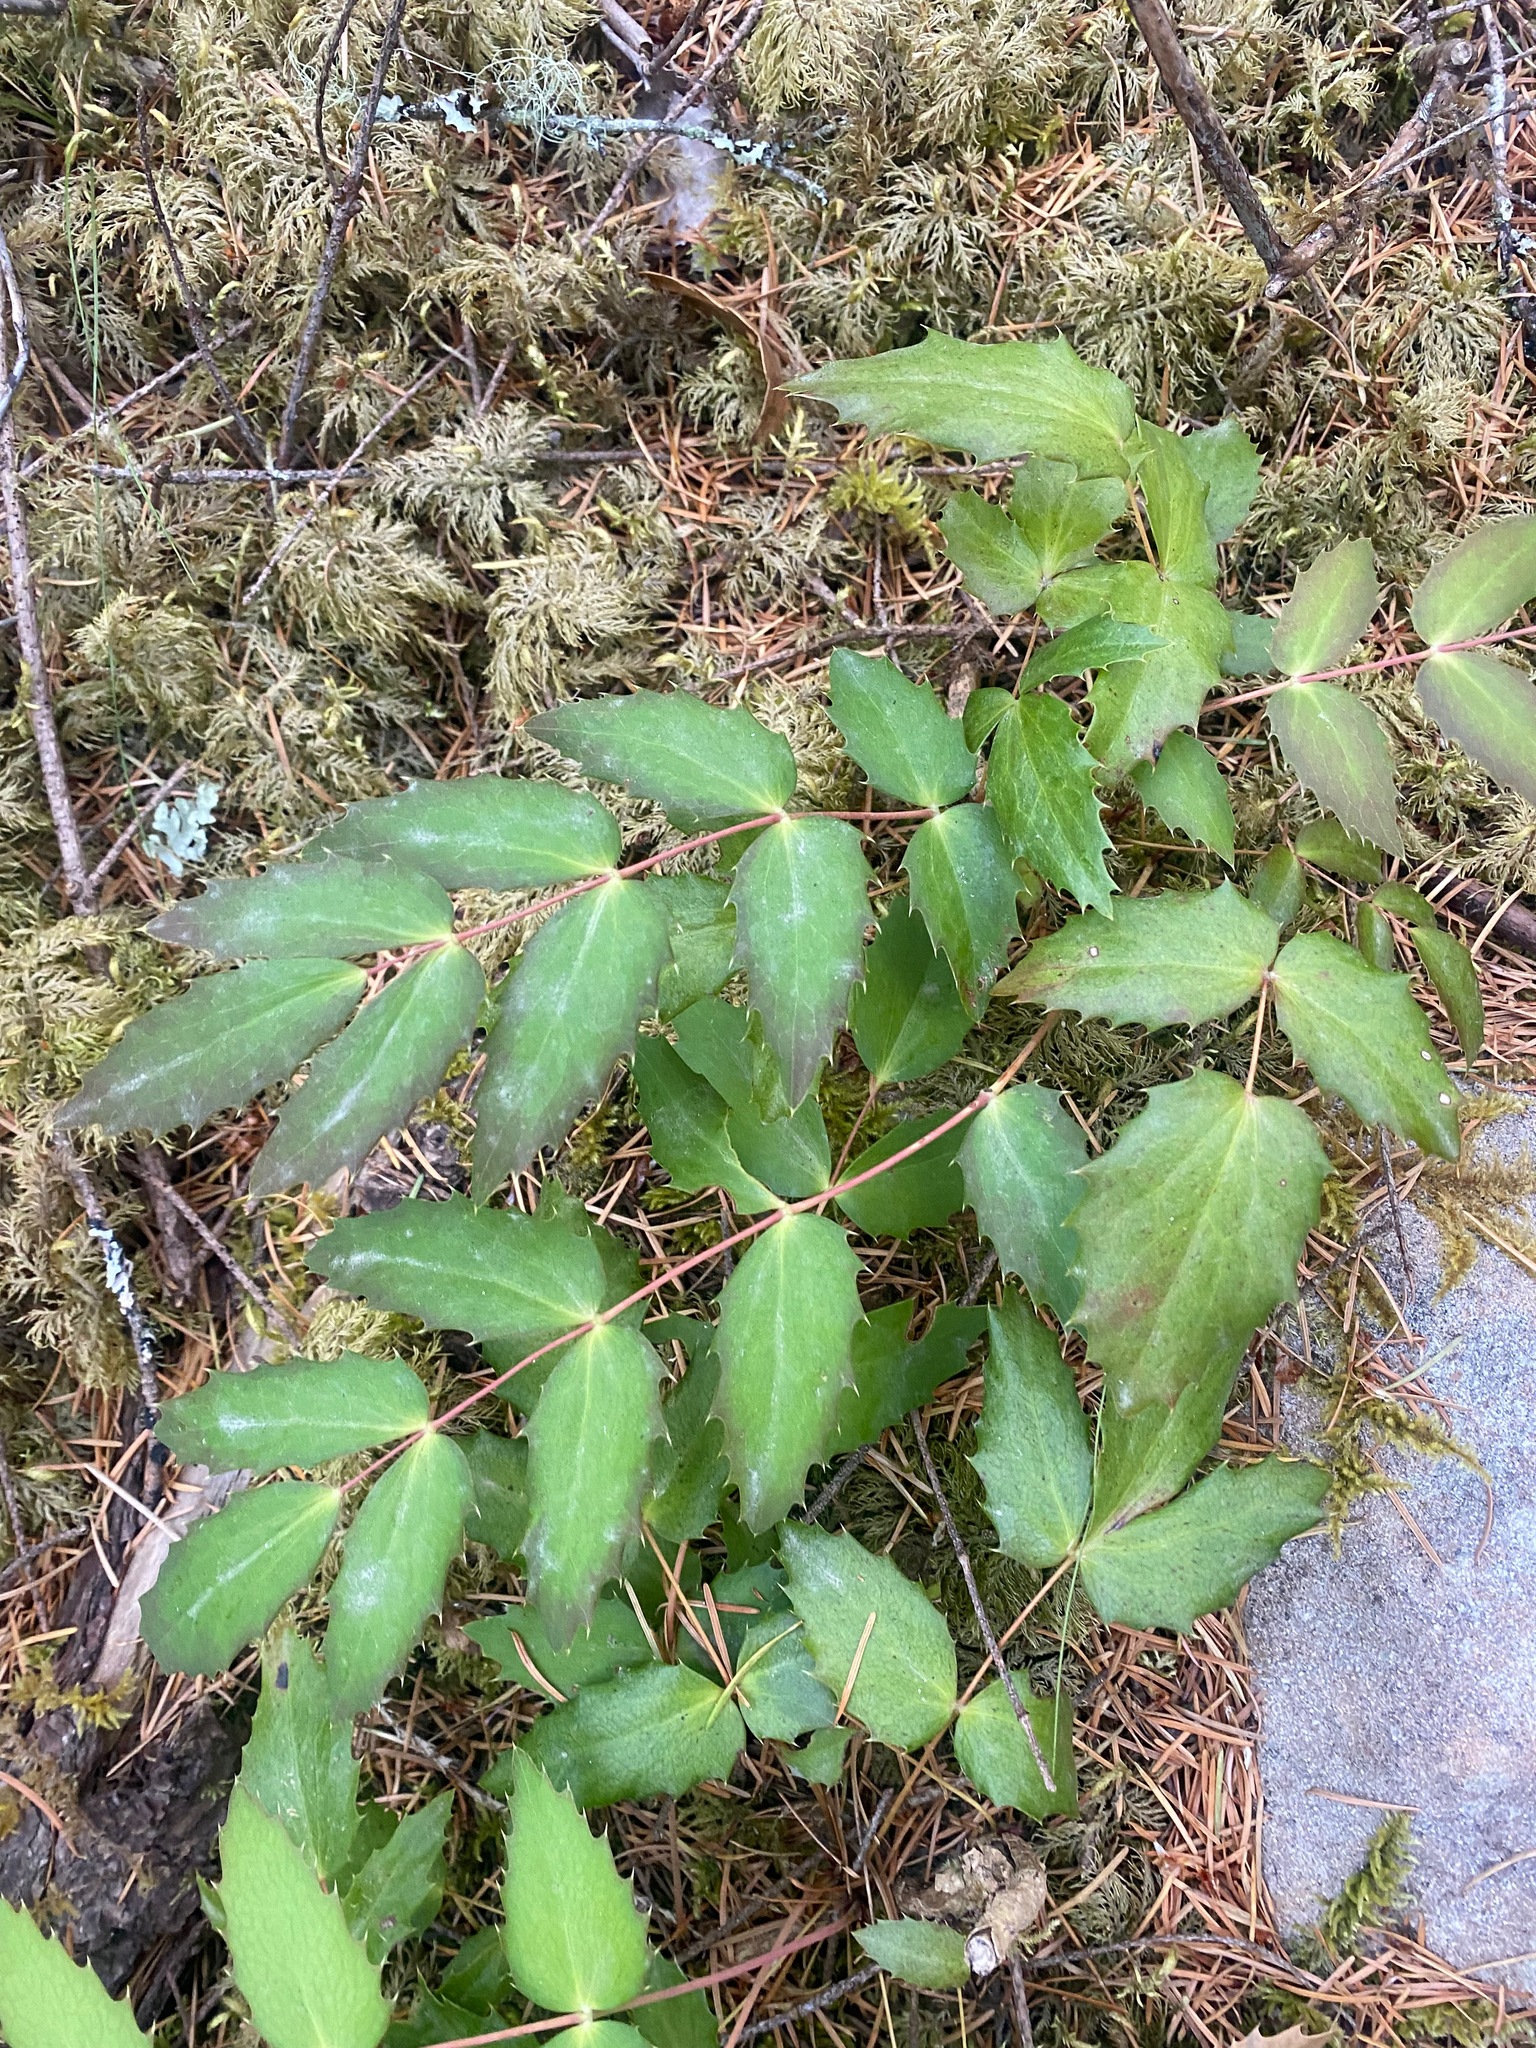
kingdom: Plantae
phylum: Tracheophyta
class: Magnoliopsida
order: Ranunculales
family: Berberidaceae
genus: Mahonia
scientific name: Mahonia nervosa
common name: Cascade oregon-grape
